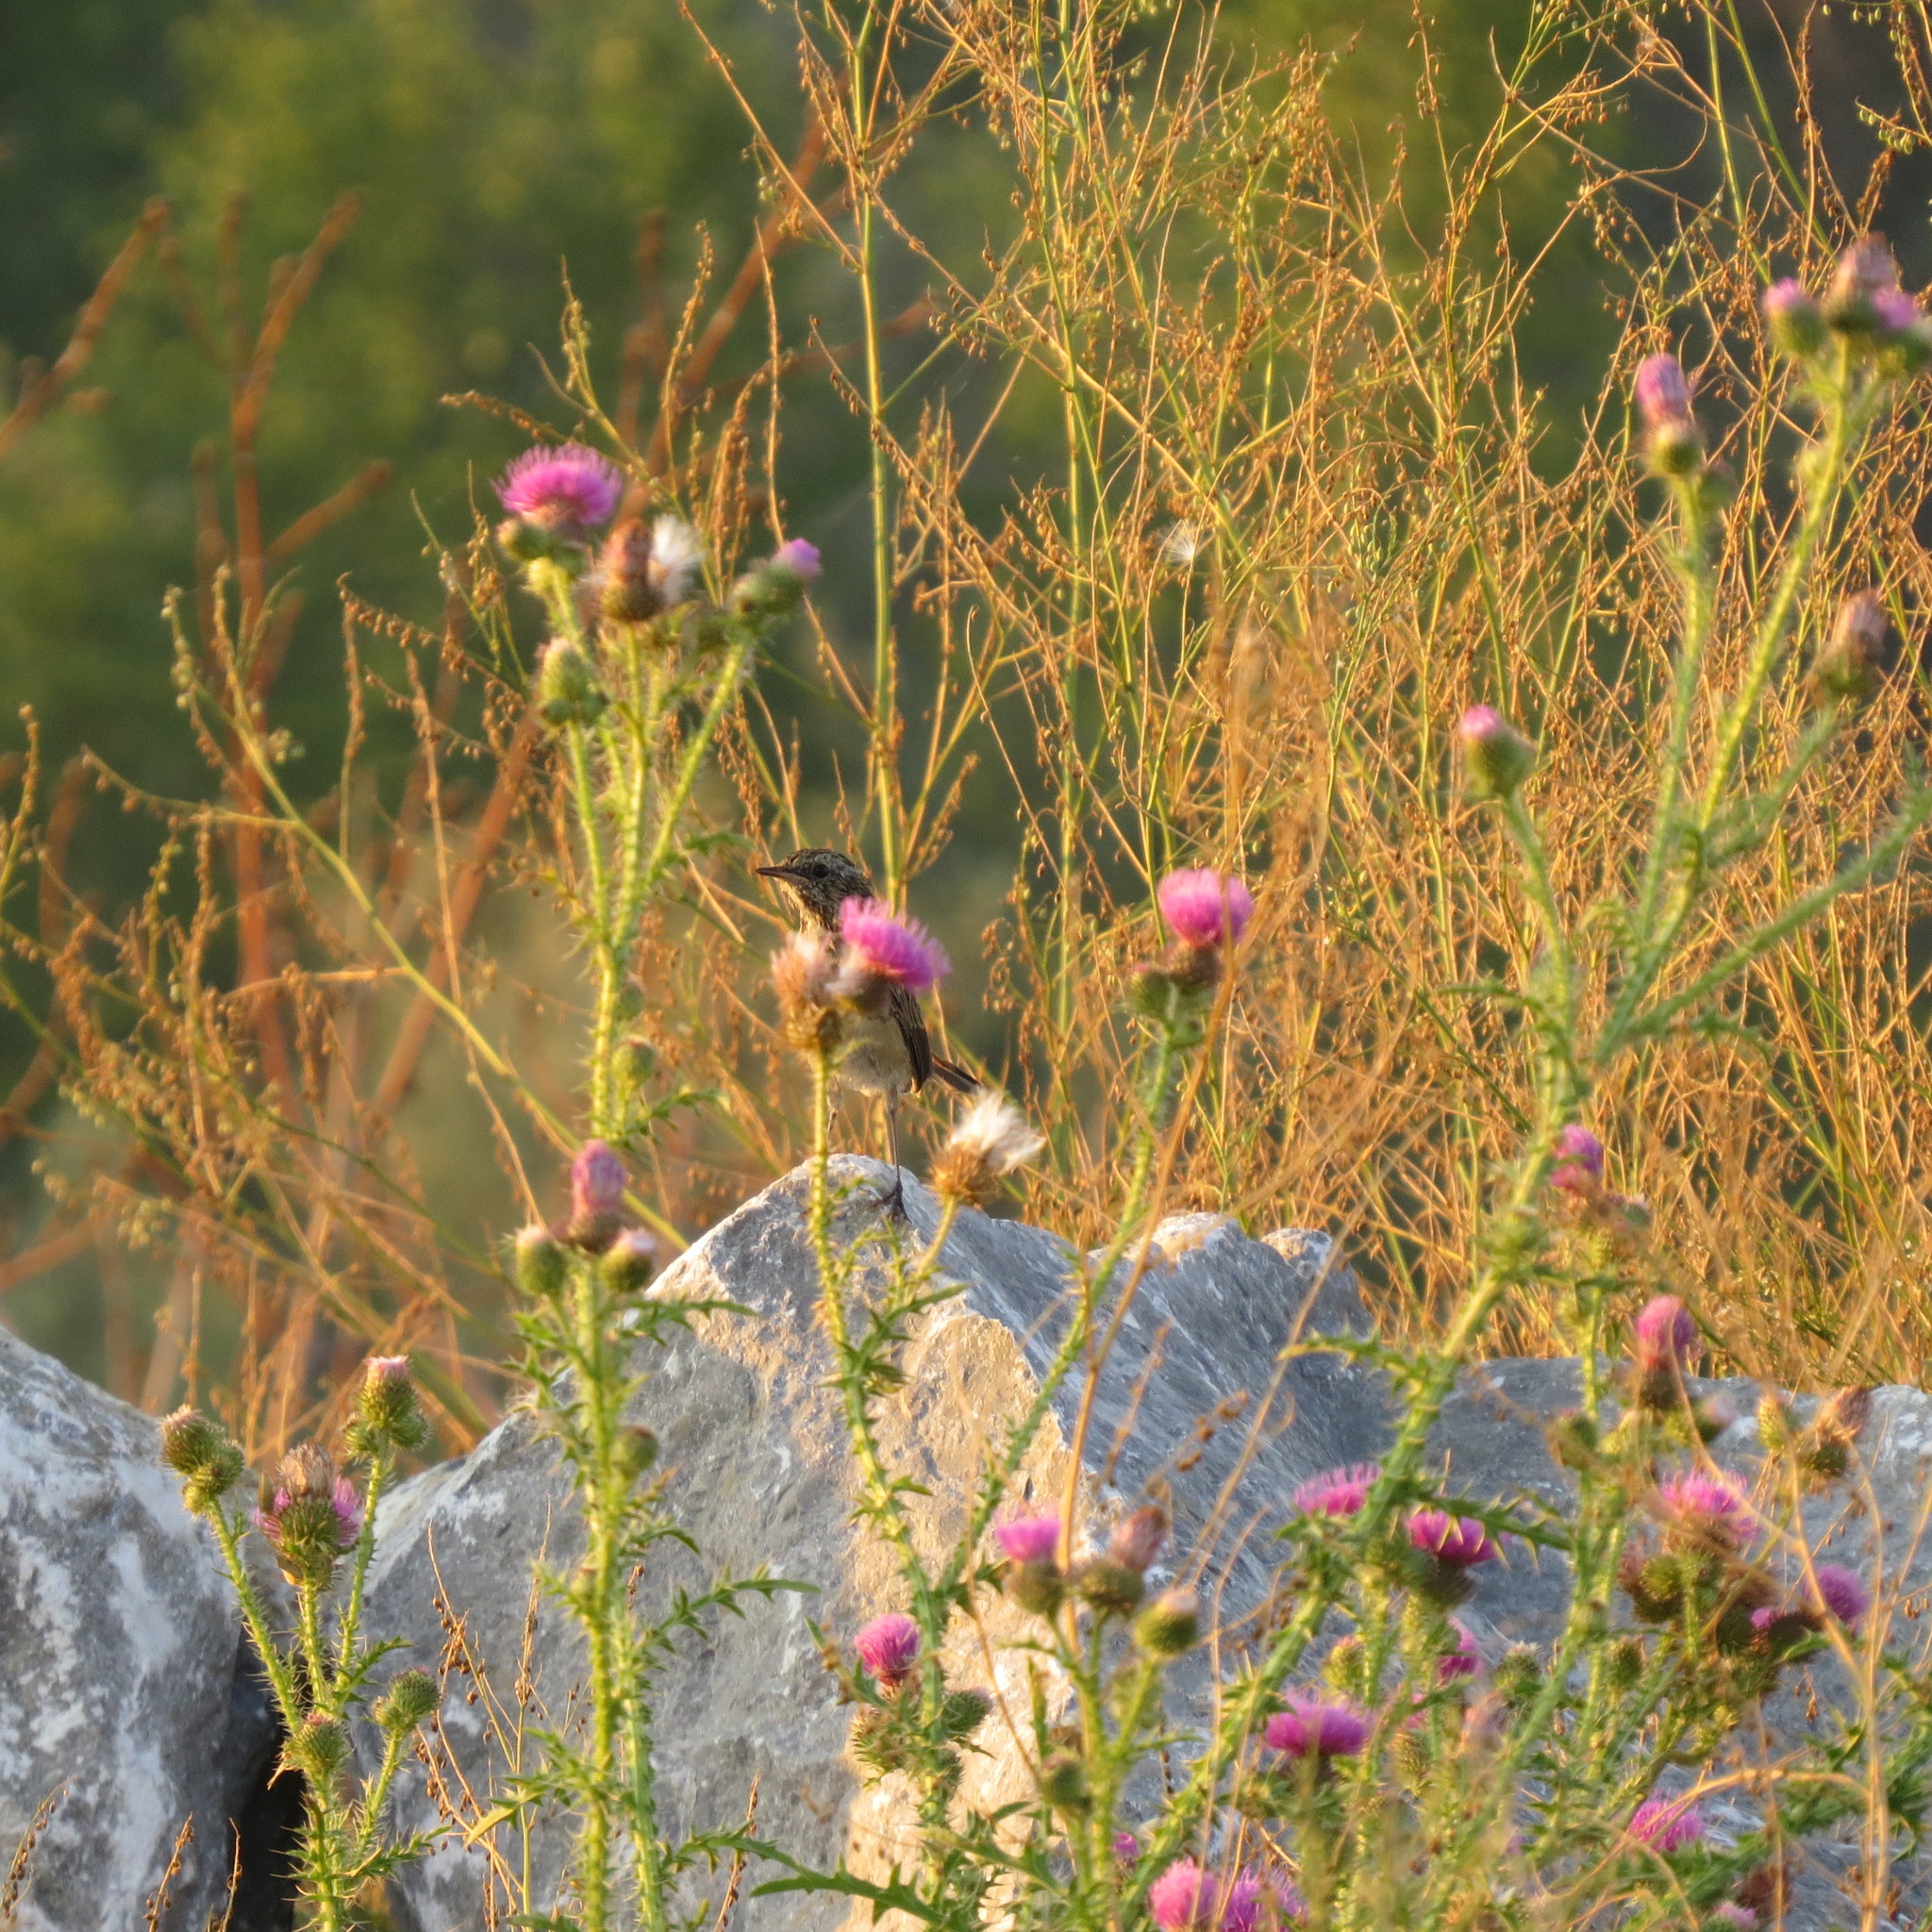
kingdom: Animalia
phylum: Chordata
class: Aves
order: Passeriformes
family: Muscicapidae
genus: Luscinia
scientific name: Luscinia svecica
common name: Bluethroat
